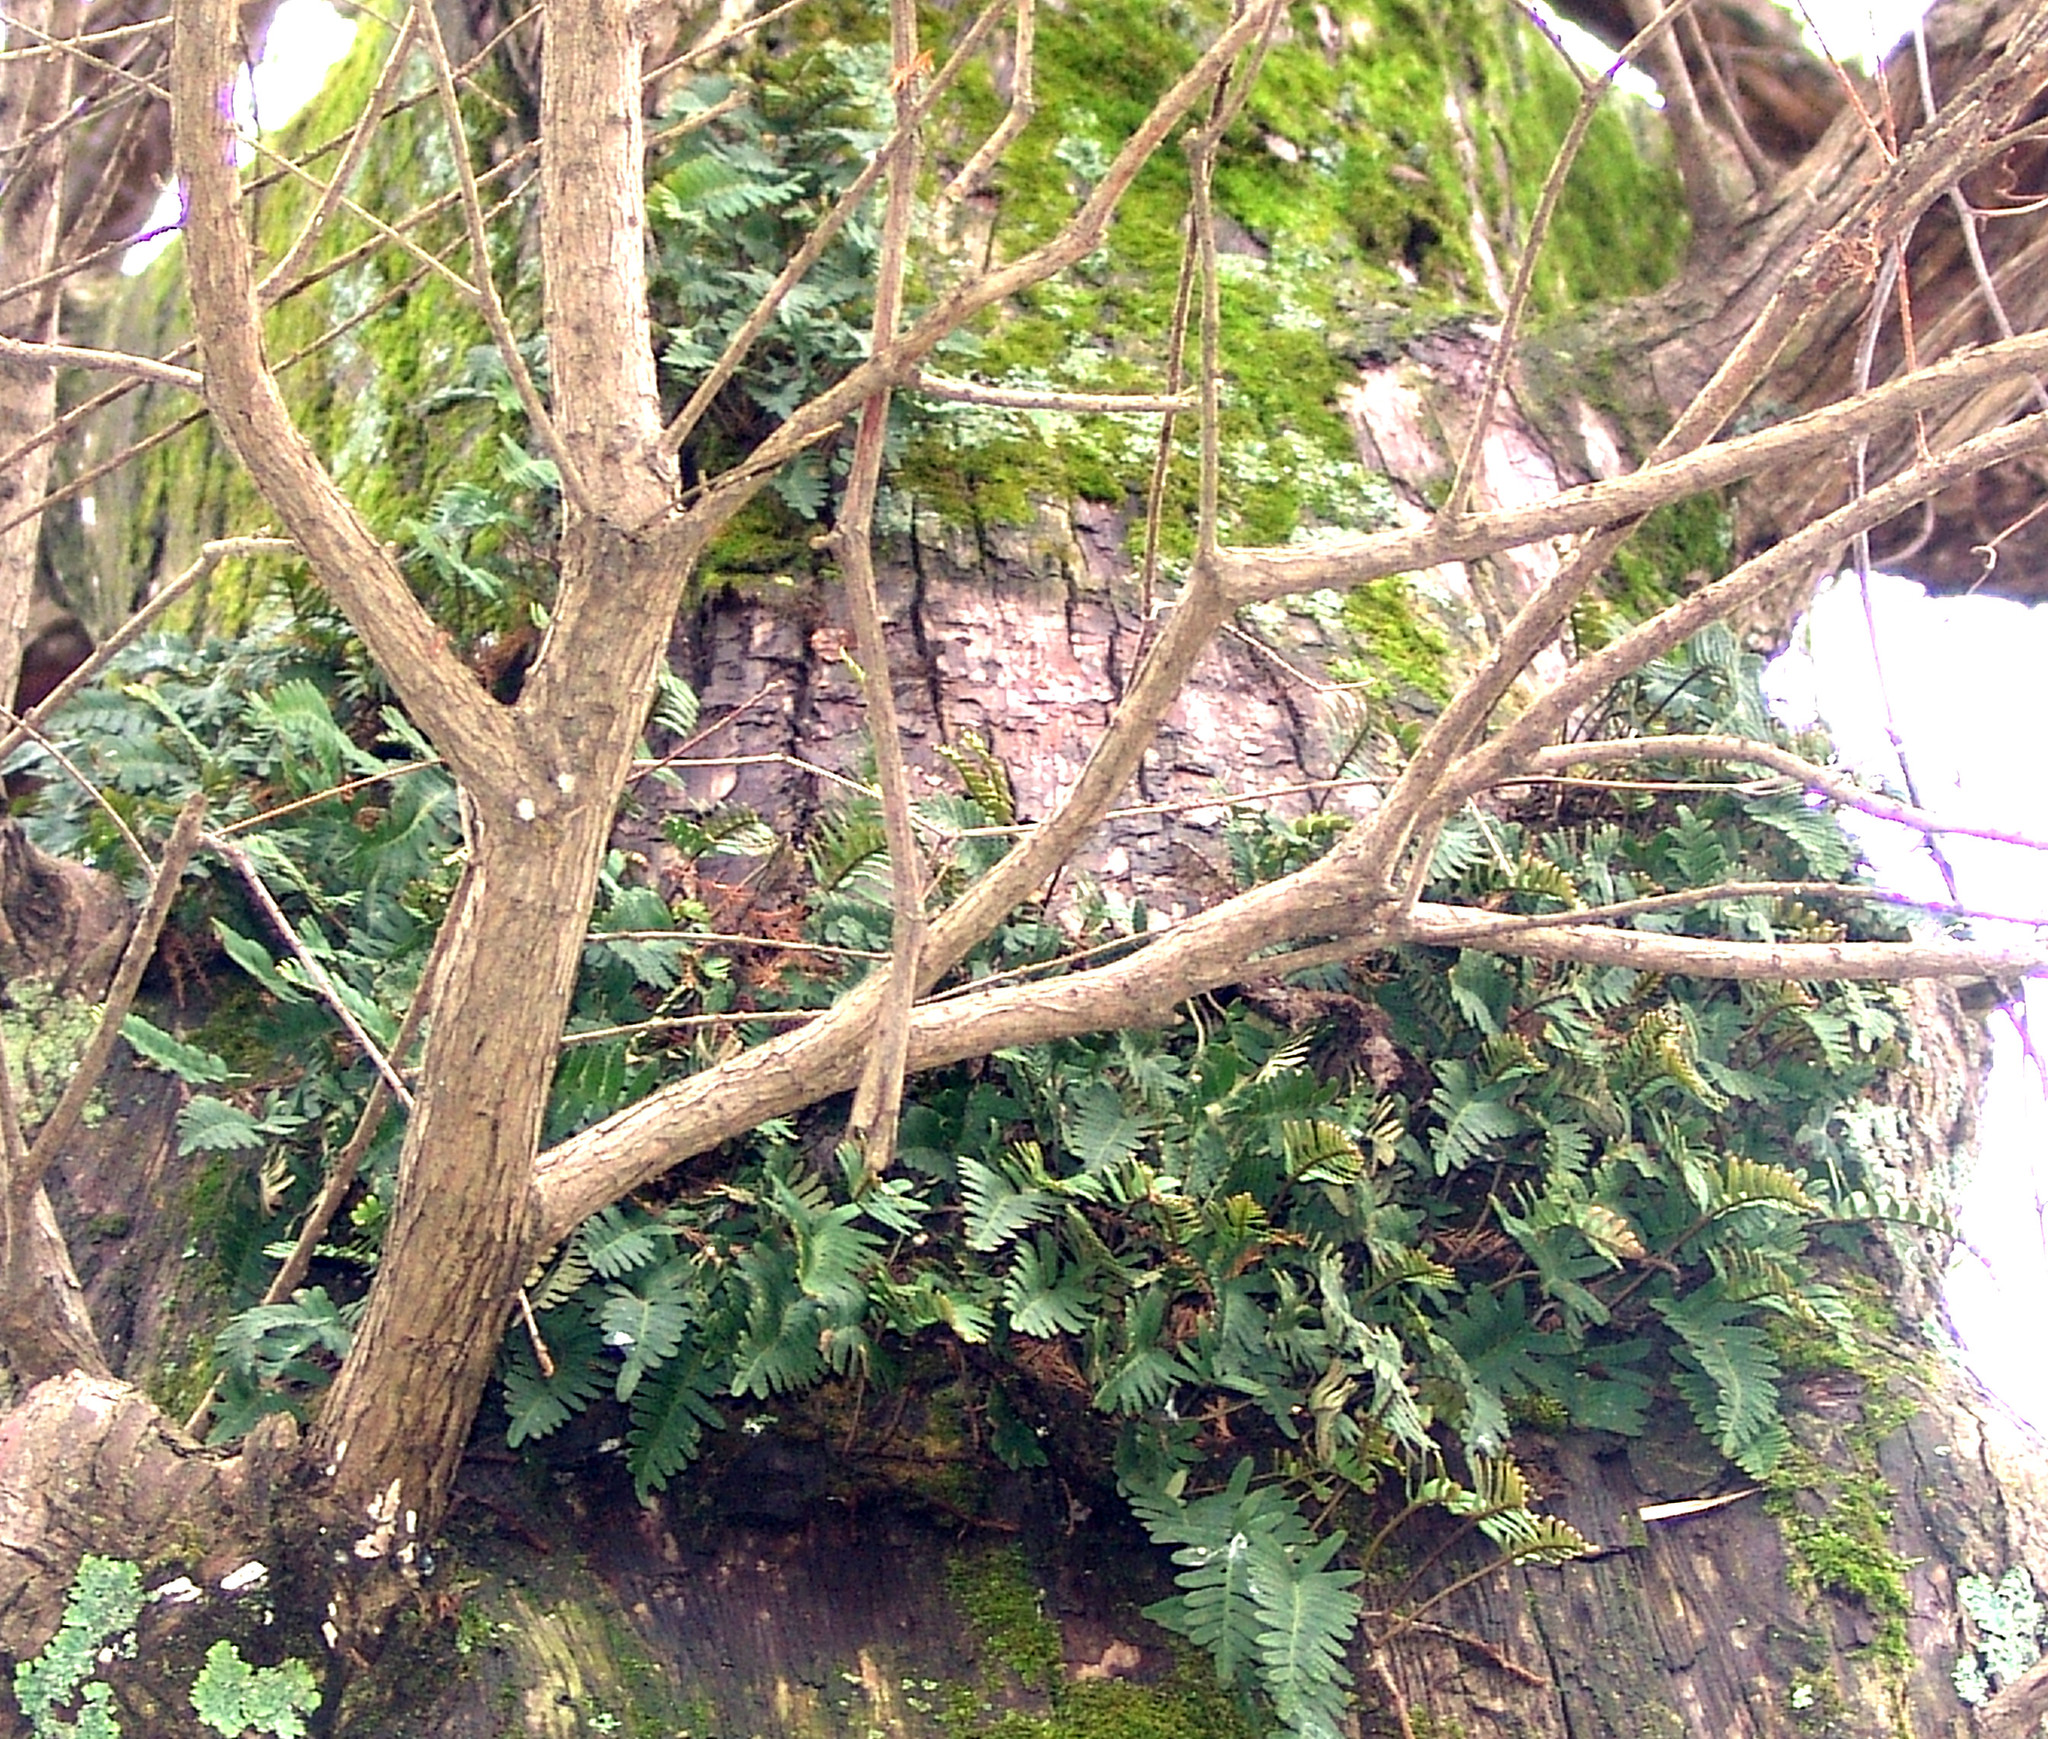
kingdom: Plantae
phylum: Tracheophyta
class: Polypodiopsida
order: Polypodiales
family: Polypodiaceae
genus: Pleopeltis
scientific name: Pleopeltis michauxiana
